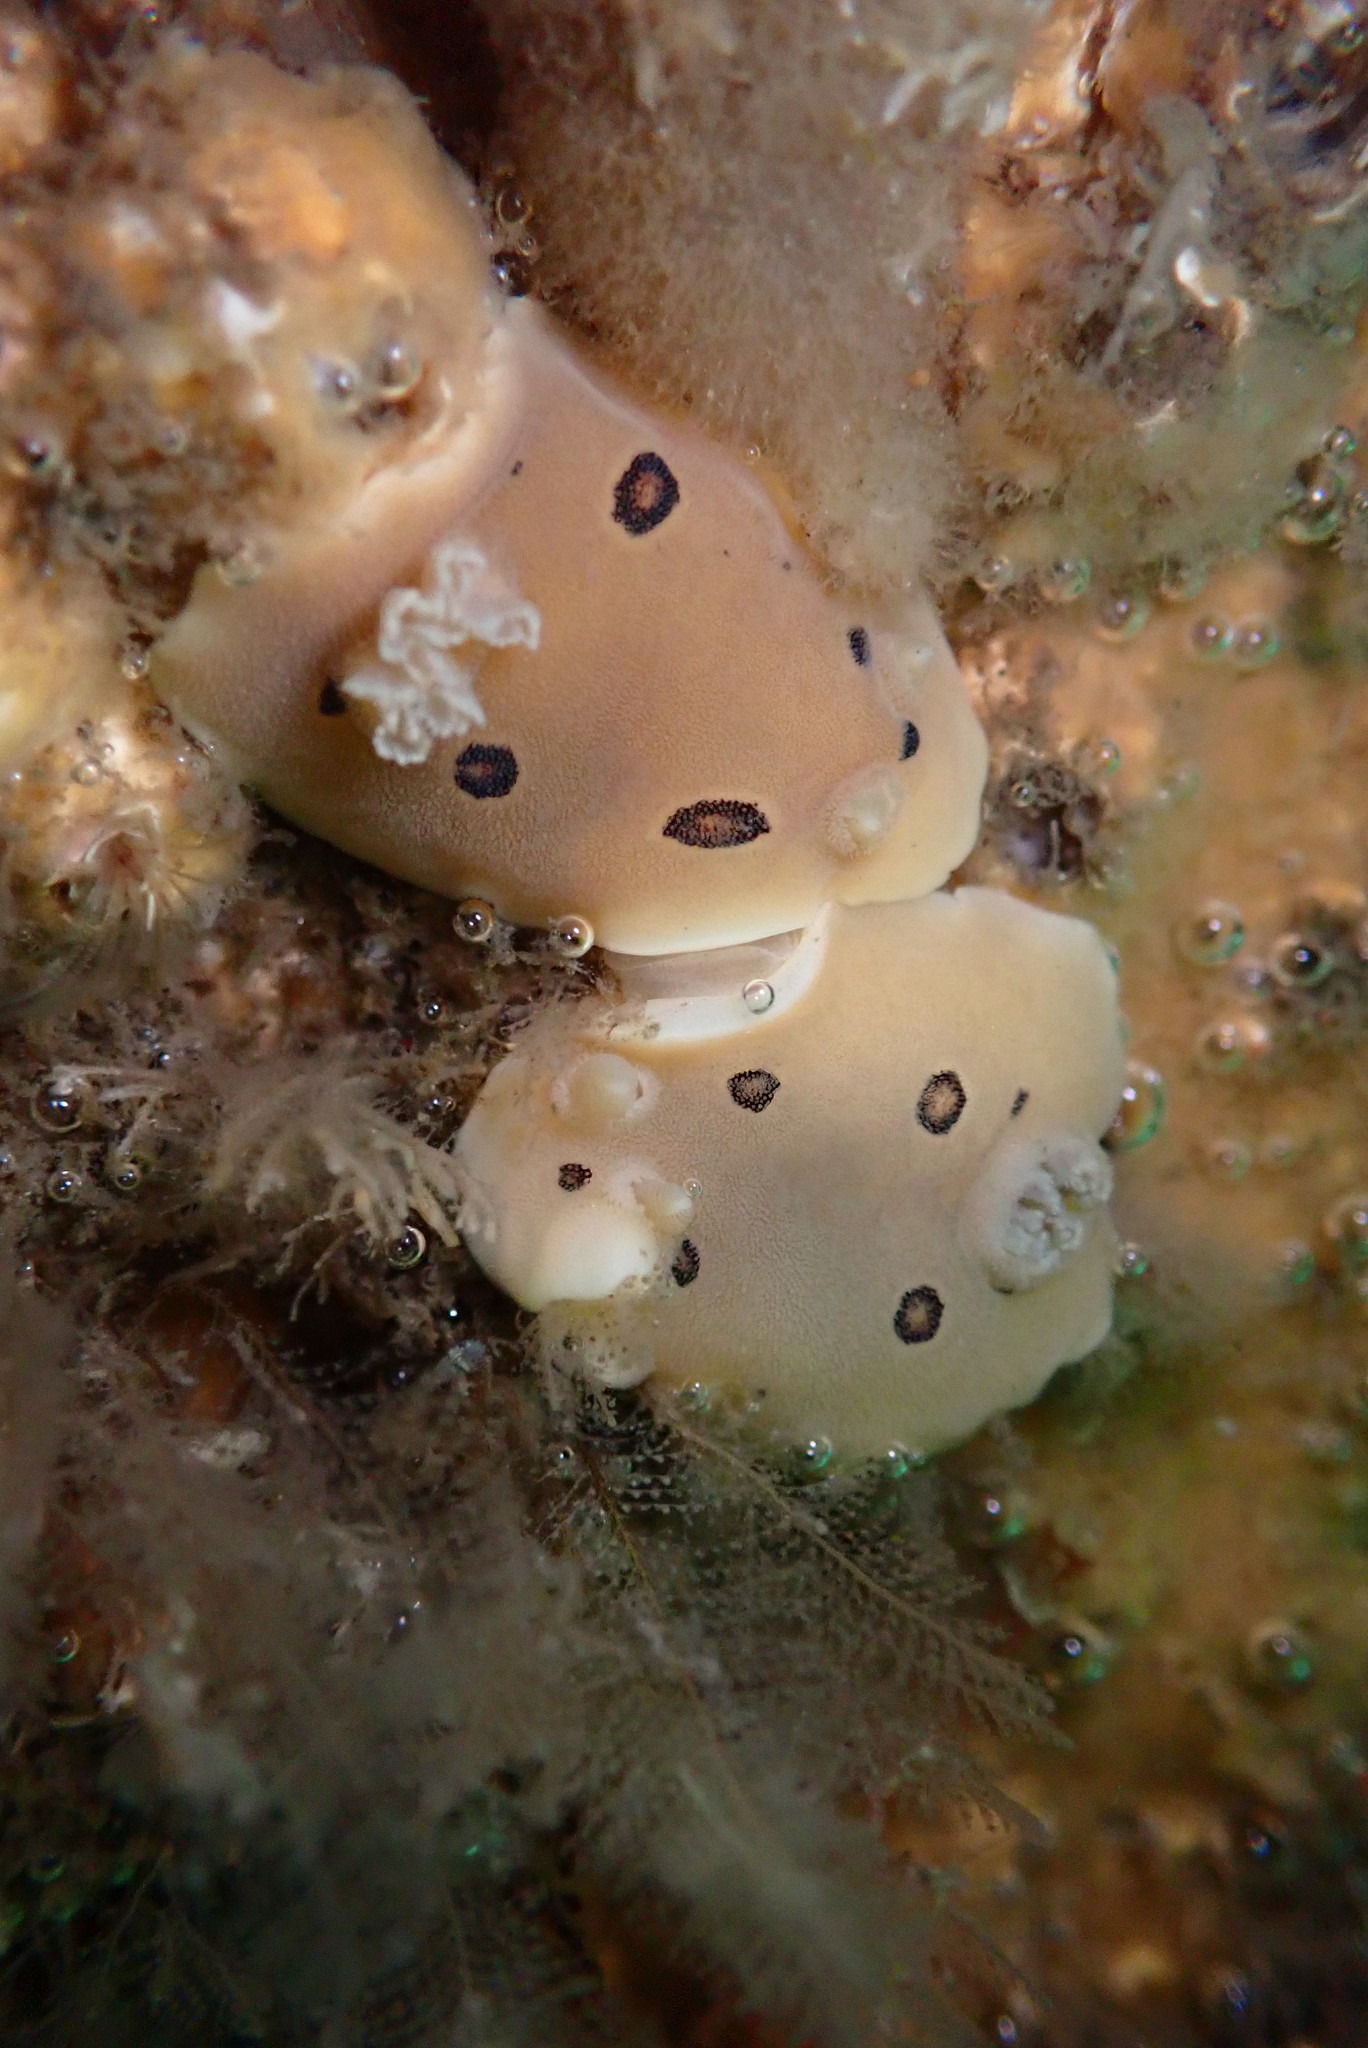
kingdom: Animalia
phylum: Mollusca
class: Gastropoda
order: Nudibranchia
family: Discodorididae
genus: Diaulula
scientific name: Diaulula sandiegensis
